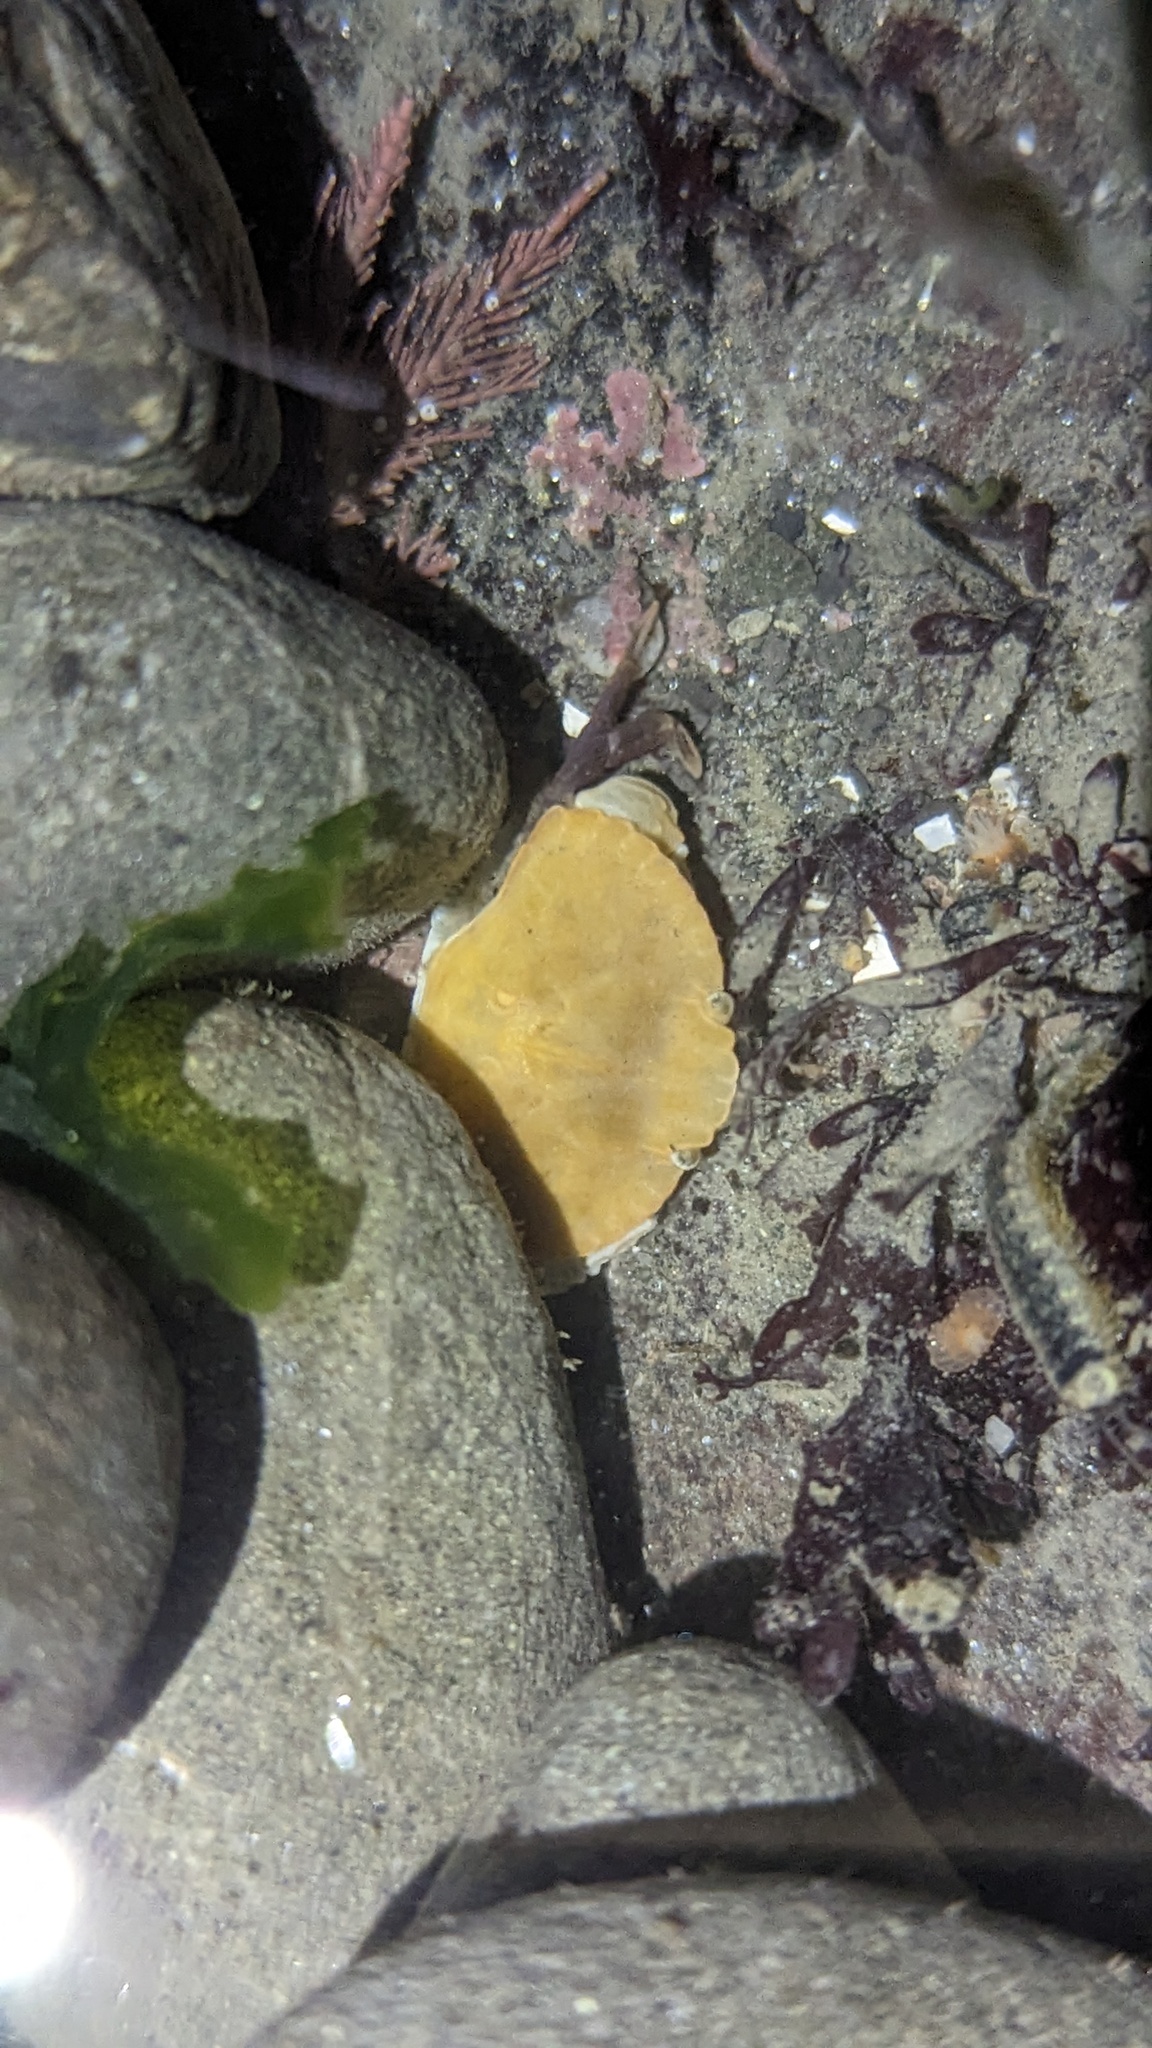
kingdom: Animalia
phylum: Arthropoda
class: Malacostraca
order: Decapoda
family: Cancridae
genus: Cancer
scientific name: Cancer productus
